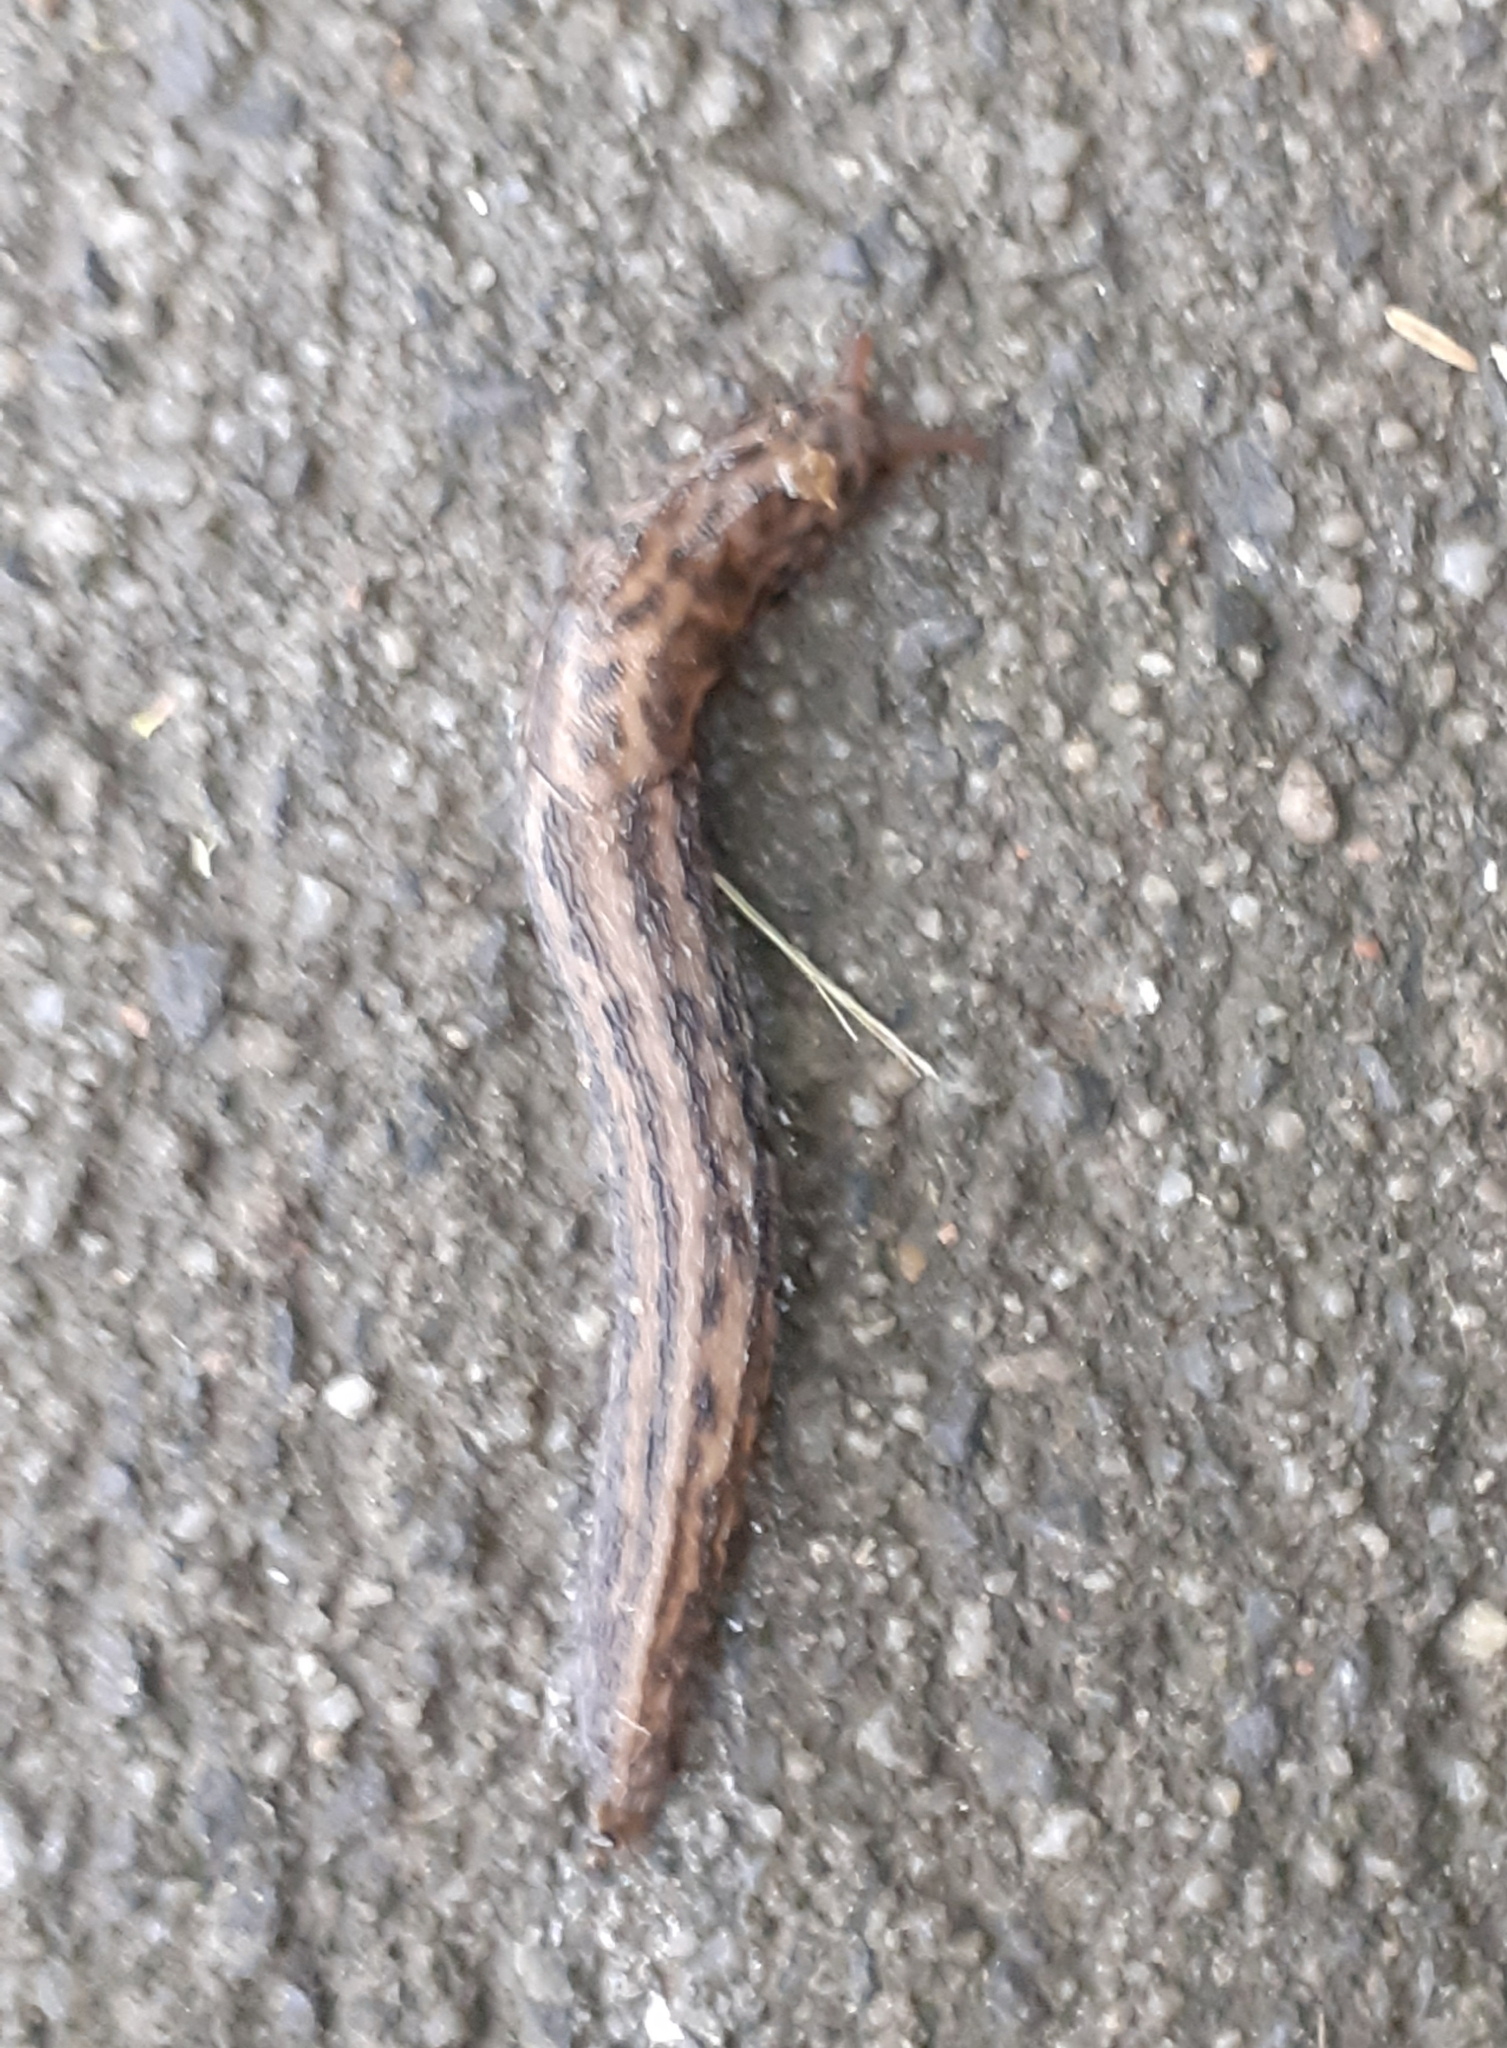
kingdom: Animalia
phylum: Mollusca
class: Gastropoda
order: Stylommatophora
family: Limacidae
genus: Limax
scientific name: Limax maximus
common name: Great grey slug
